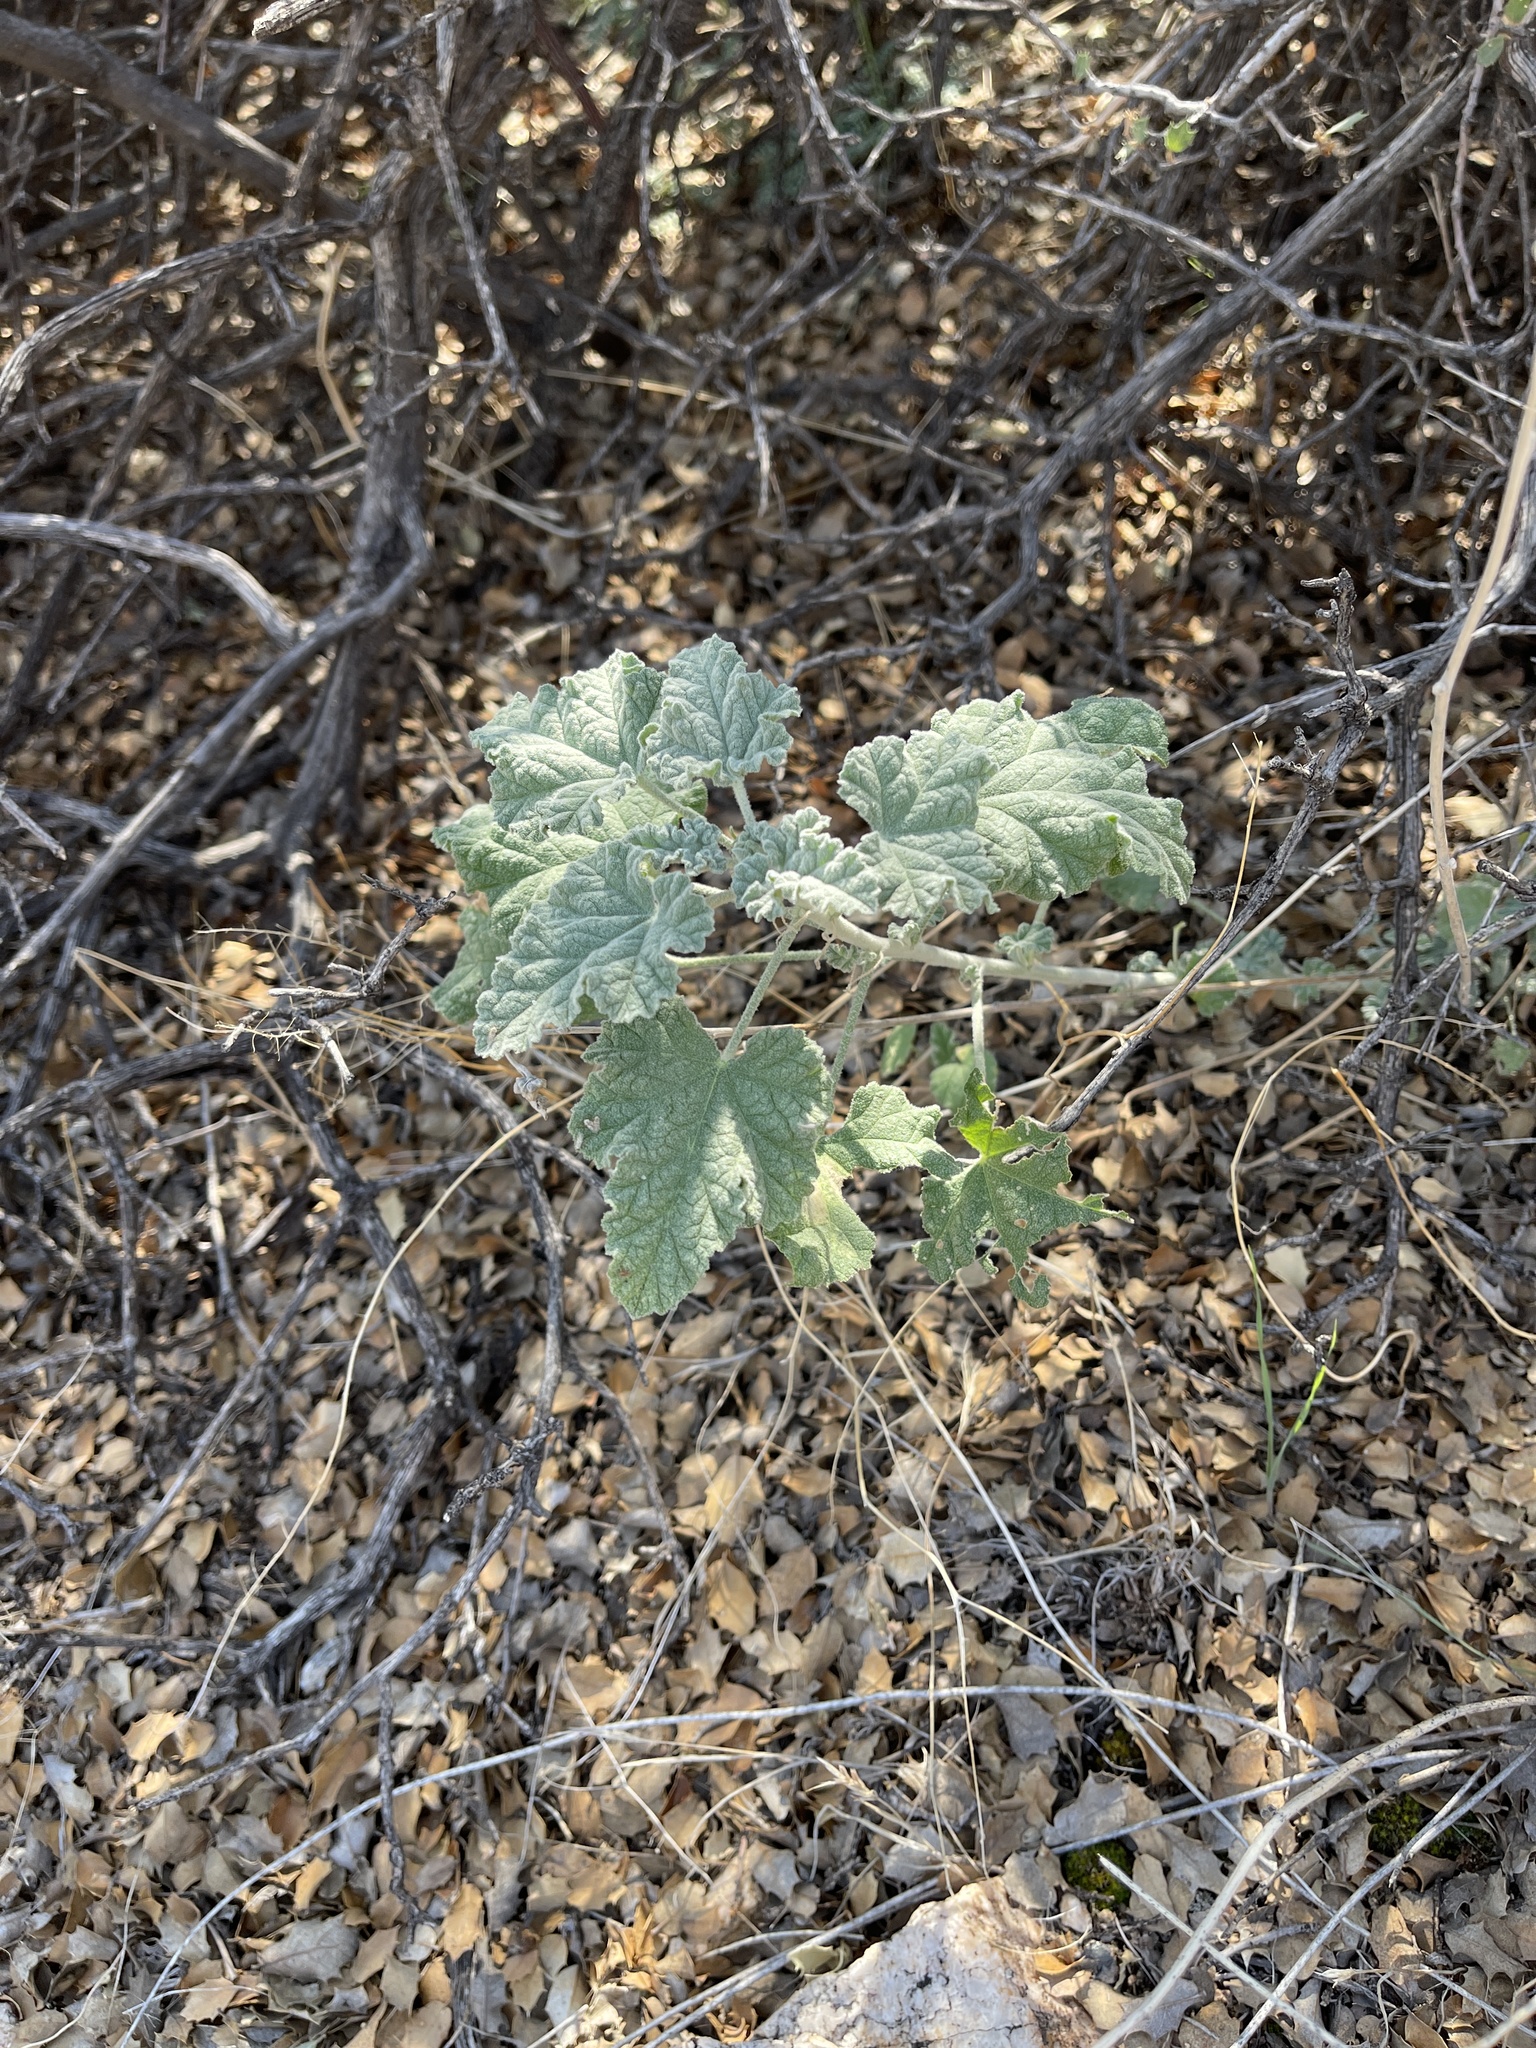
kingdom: Plantae
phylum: Tracheophyta
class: Magnoliopsida
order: Malvales
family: Malvaceae
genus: Sphaeralcea
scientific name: Sphaeralcea ambigua
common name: Apricot globe-mallow
